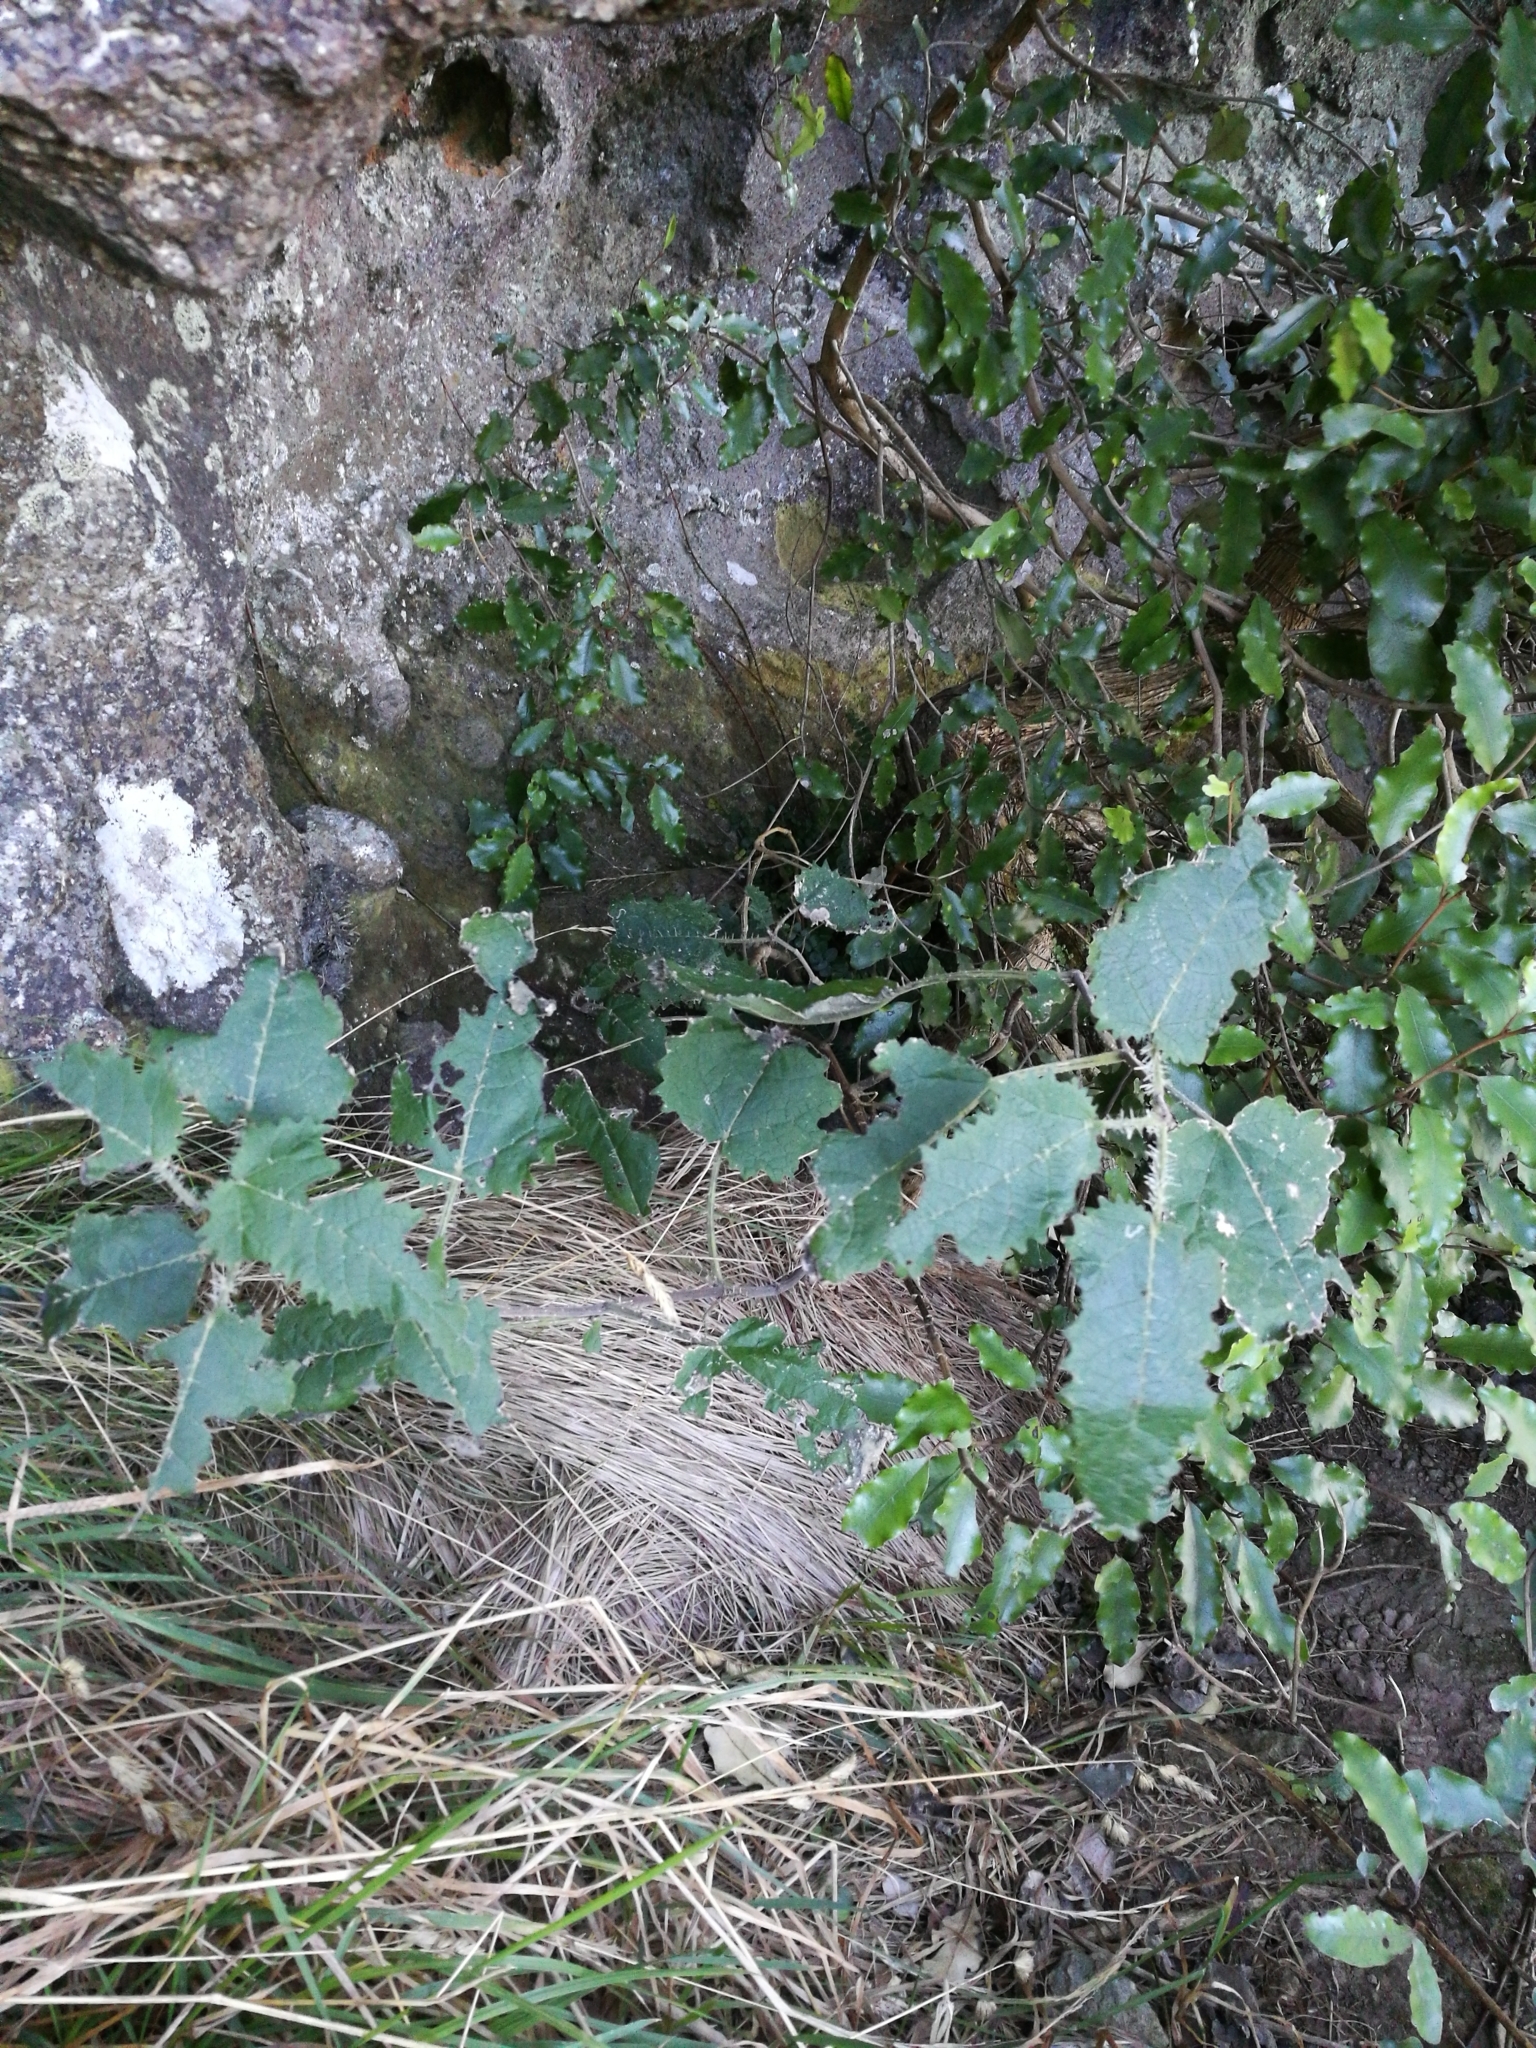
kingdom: Plantae
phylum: Tracheophyta
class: Magnoliopsida
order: Rosales
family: Urticaceae
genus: Urtica
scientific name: Urtica ferox
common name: Tree nettle
